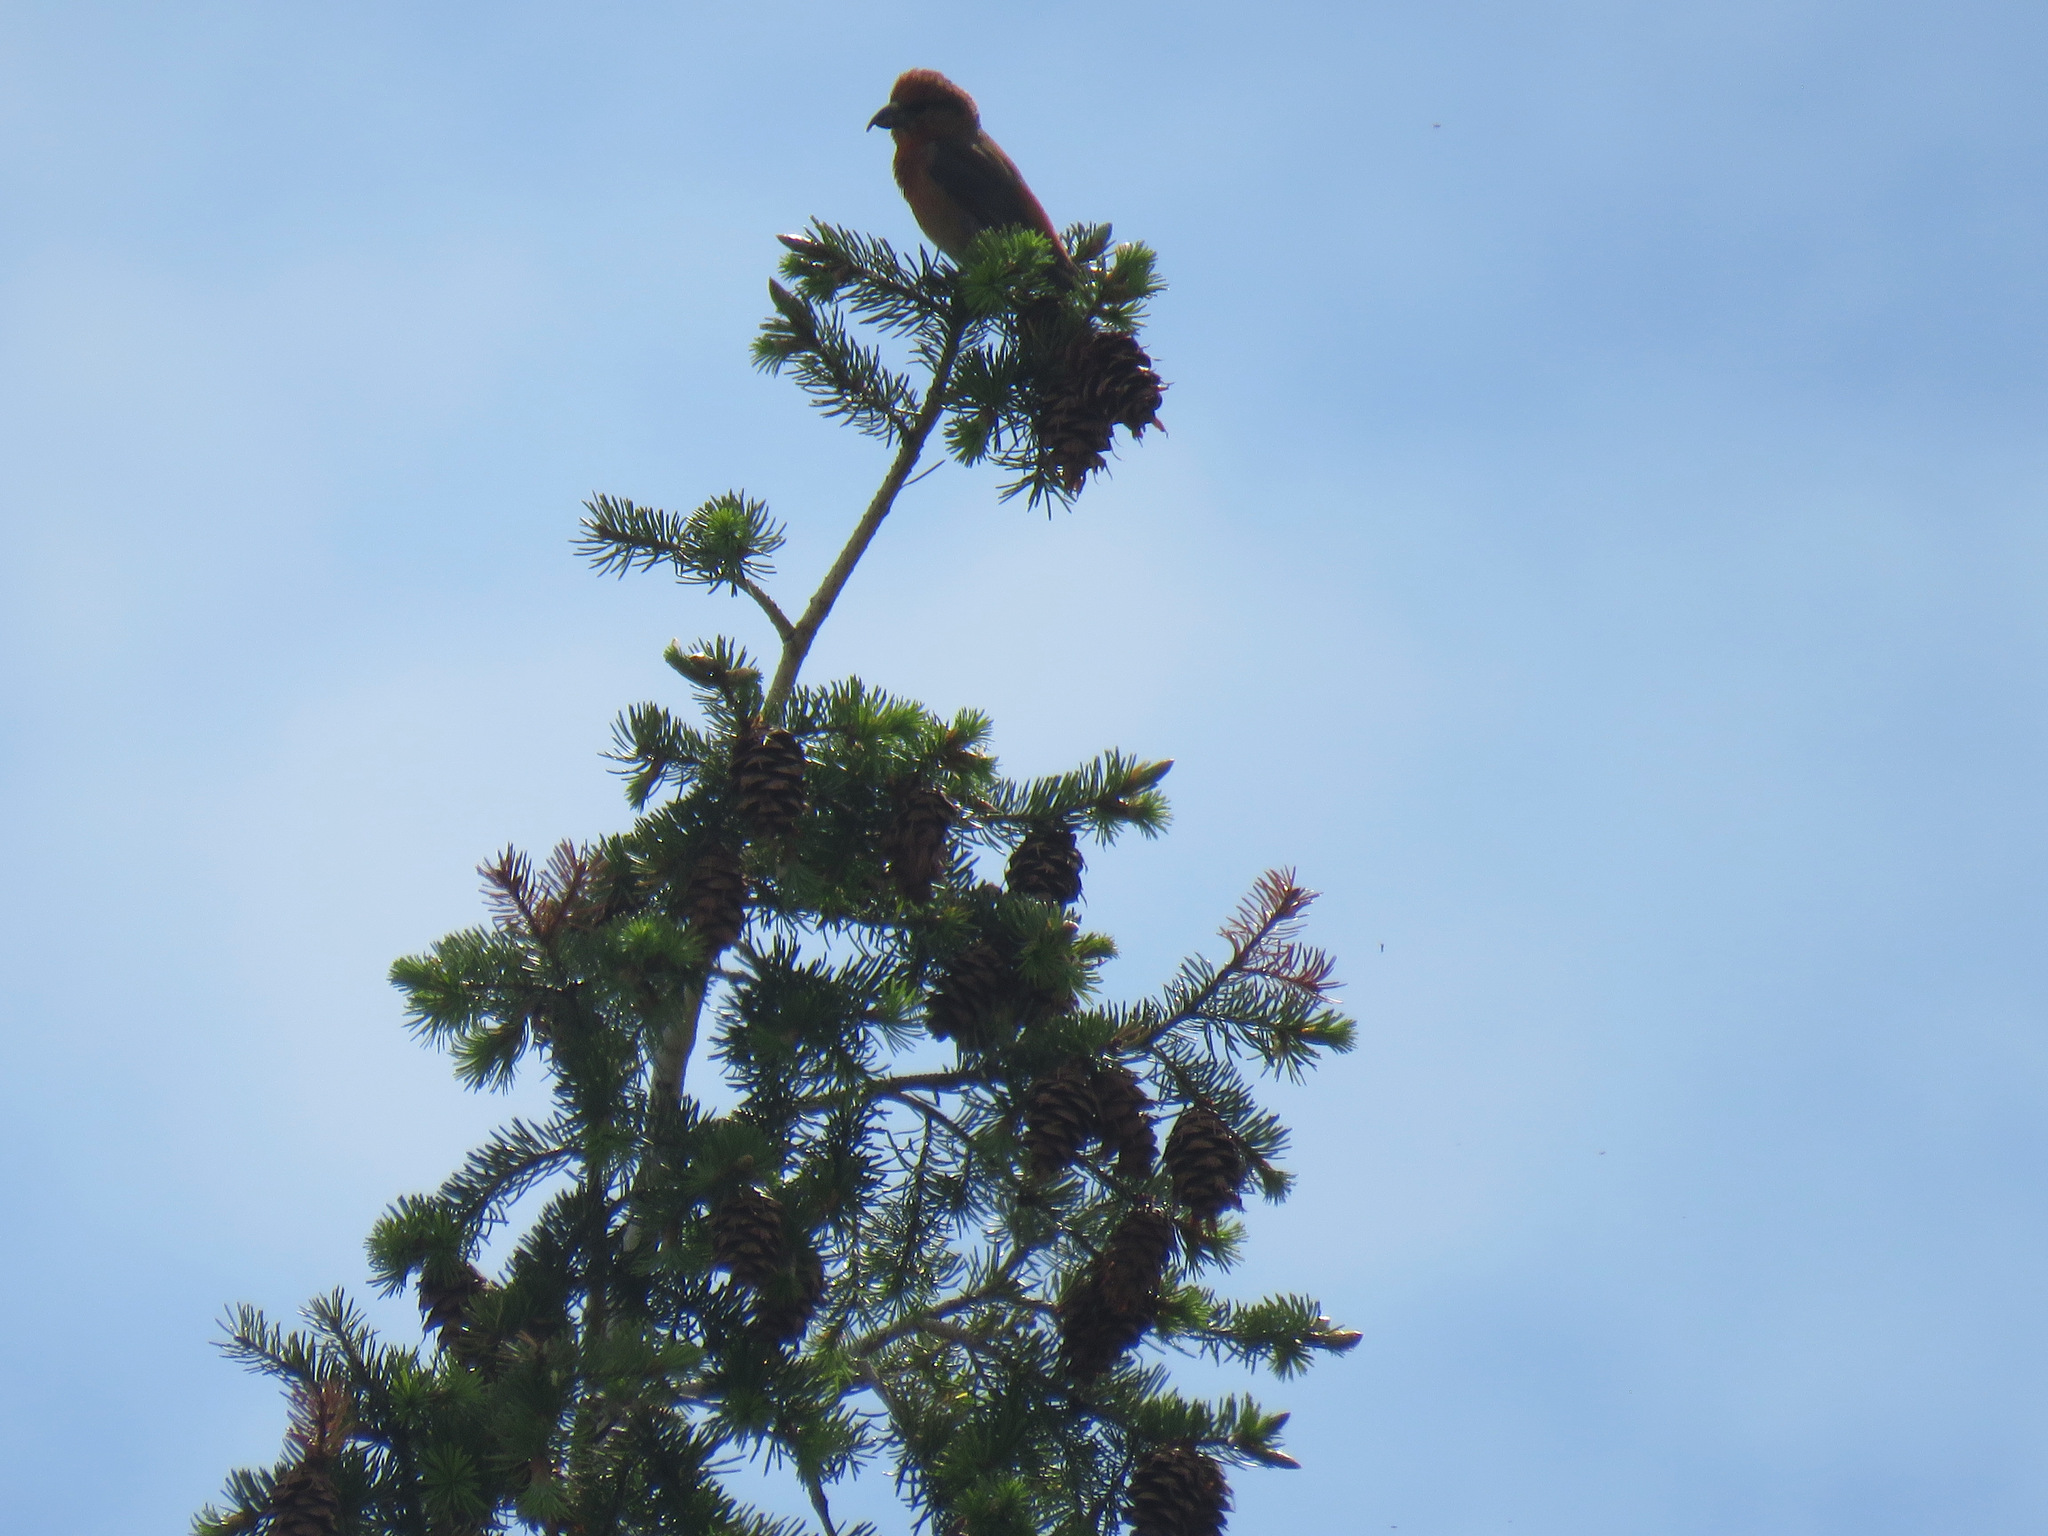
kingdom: Animalia
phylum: Chordata
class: Aves
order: Passeriformes
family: Fringillidae
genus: Loxia
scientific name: Loxia curvirostra
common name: Red crossbill
